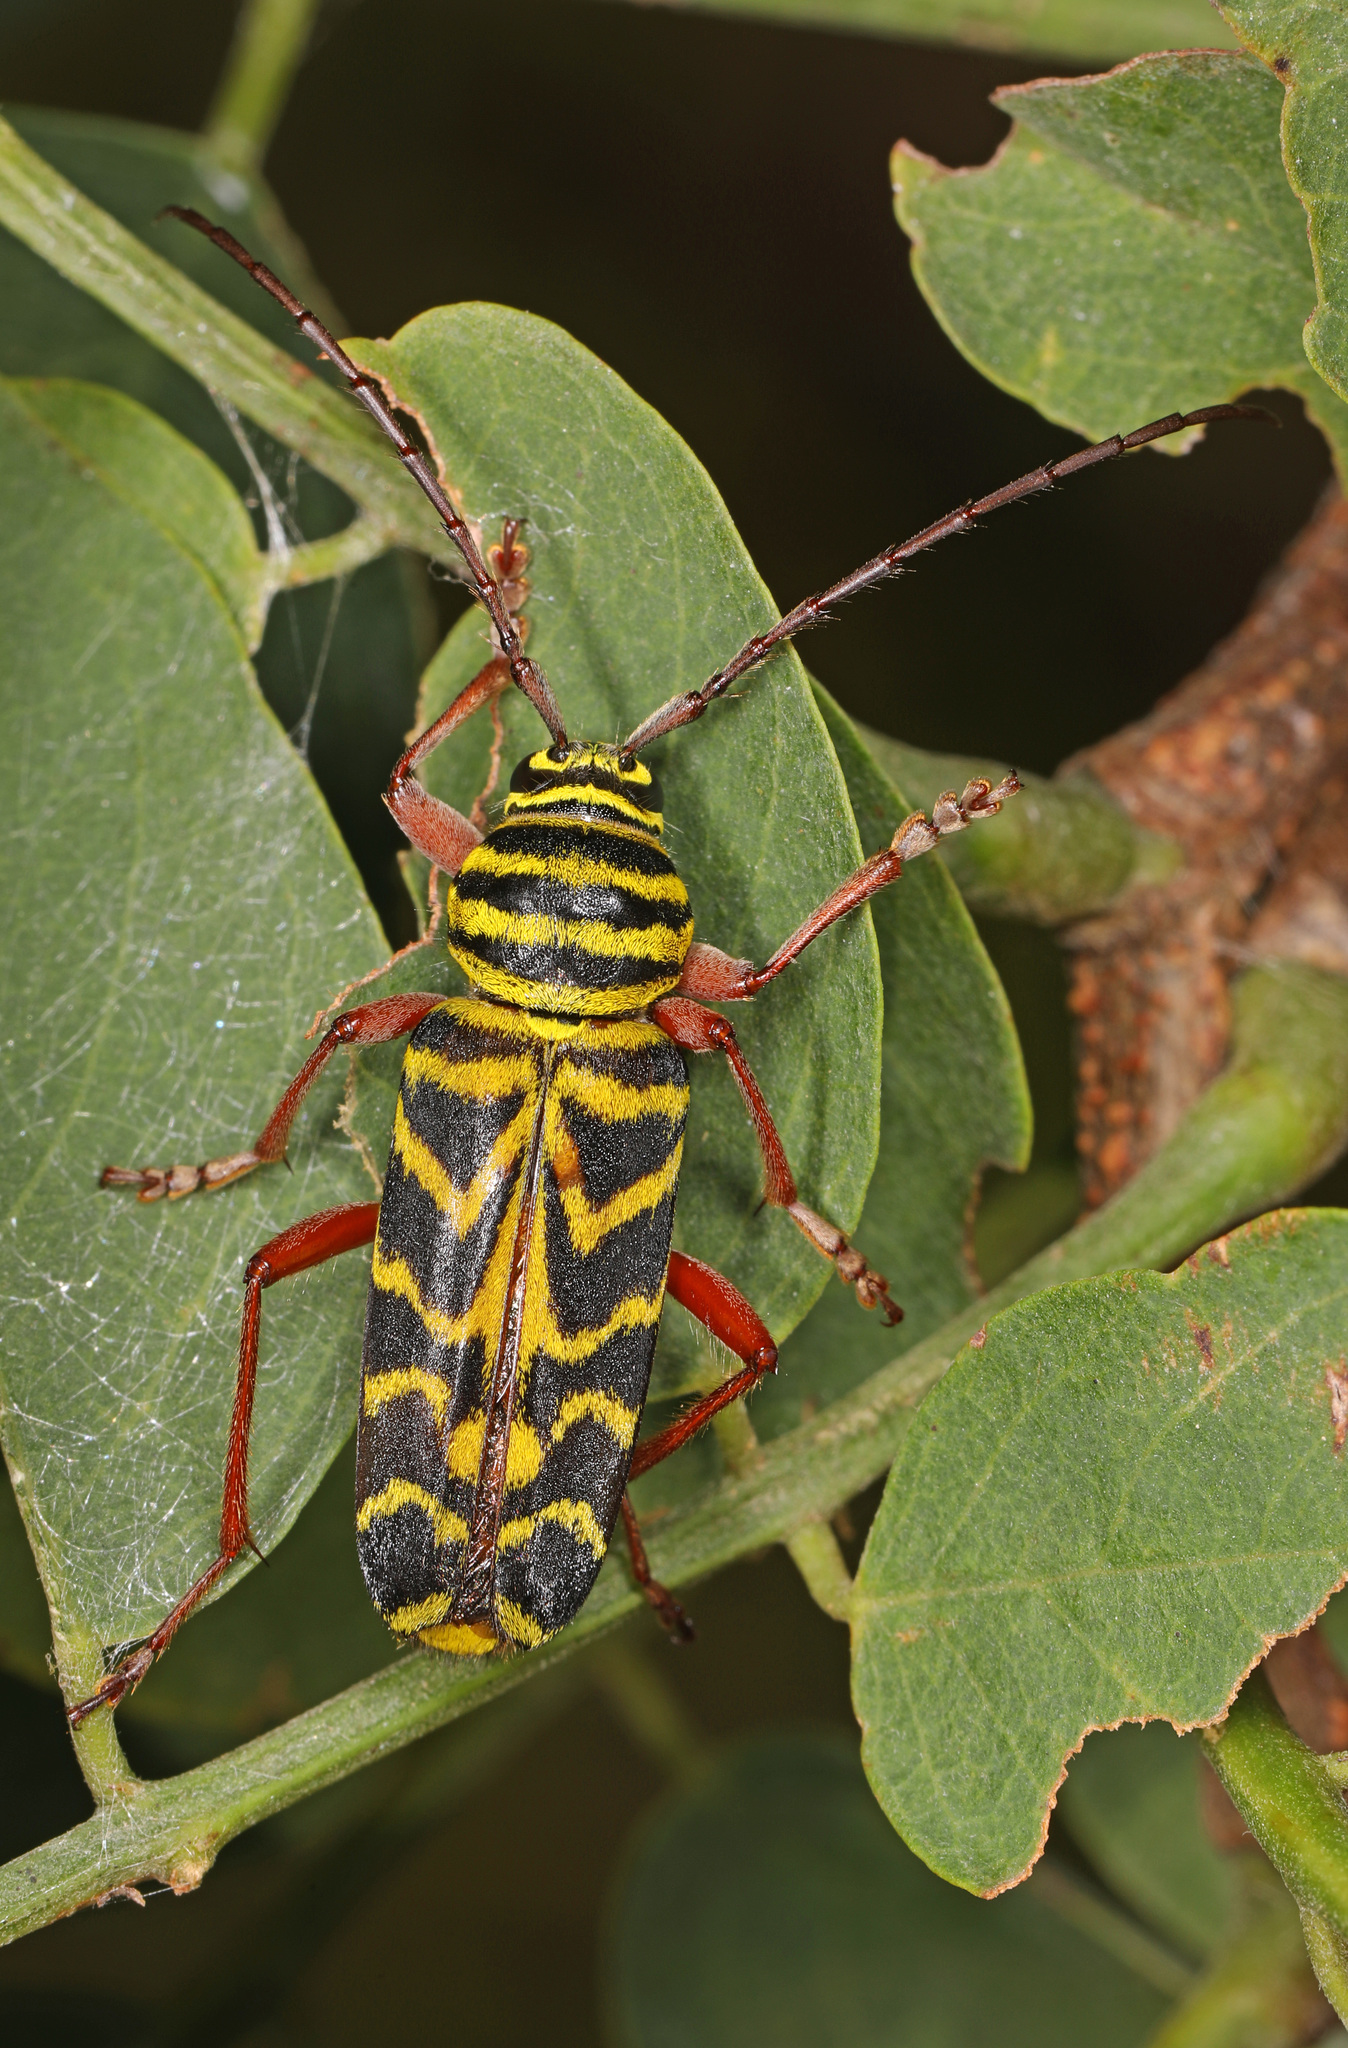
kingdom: Animalia
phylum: Arthropoda
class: Insecta
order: Coleoptera
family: Cerambycidae
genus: Megacyllene
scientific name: Megacyllene robiniae
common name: Locust borer
